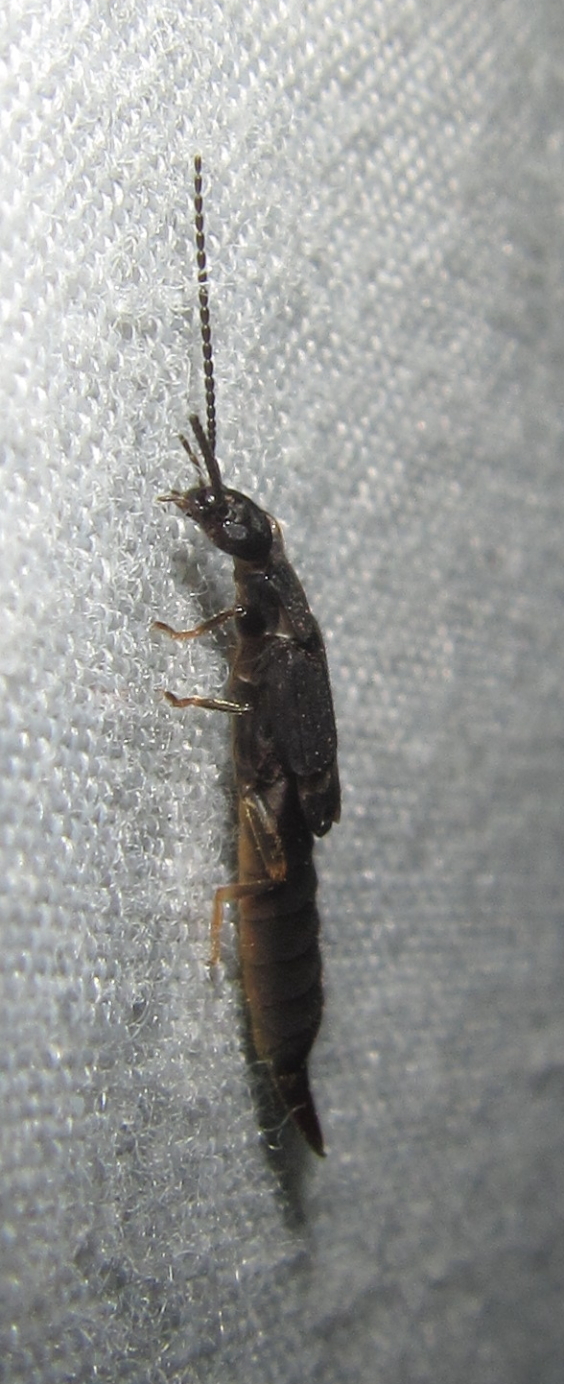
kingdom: Animalia
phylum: Arthropoda
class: Insecta
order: Dermaptera
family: Labiduridae
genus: Nala
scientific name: Nala lividipes
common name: Earwig
